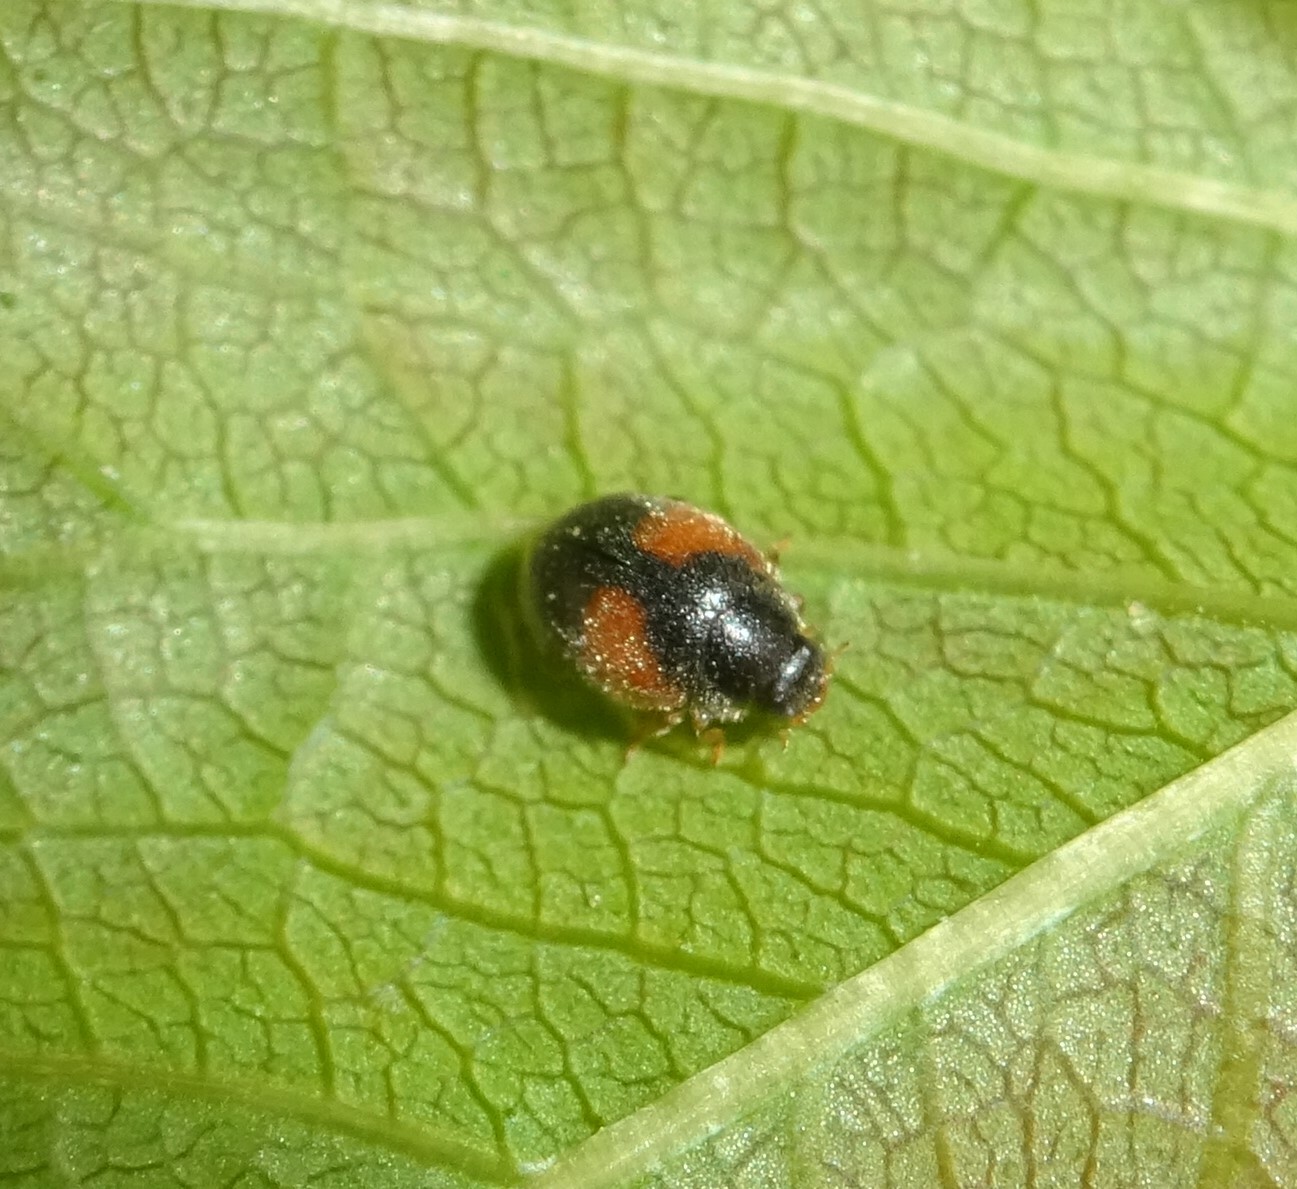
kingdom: Animalia
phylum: Arthropoda
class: Insecta
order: Coleoptera
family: Coccinellidae
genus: Scymnus
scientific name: Scymnus interruptus
